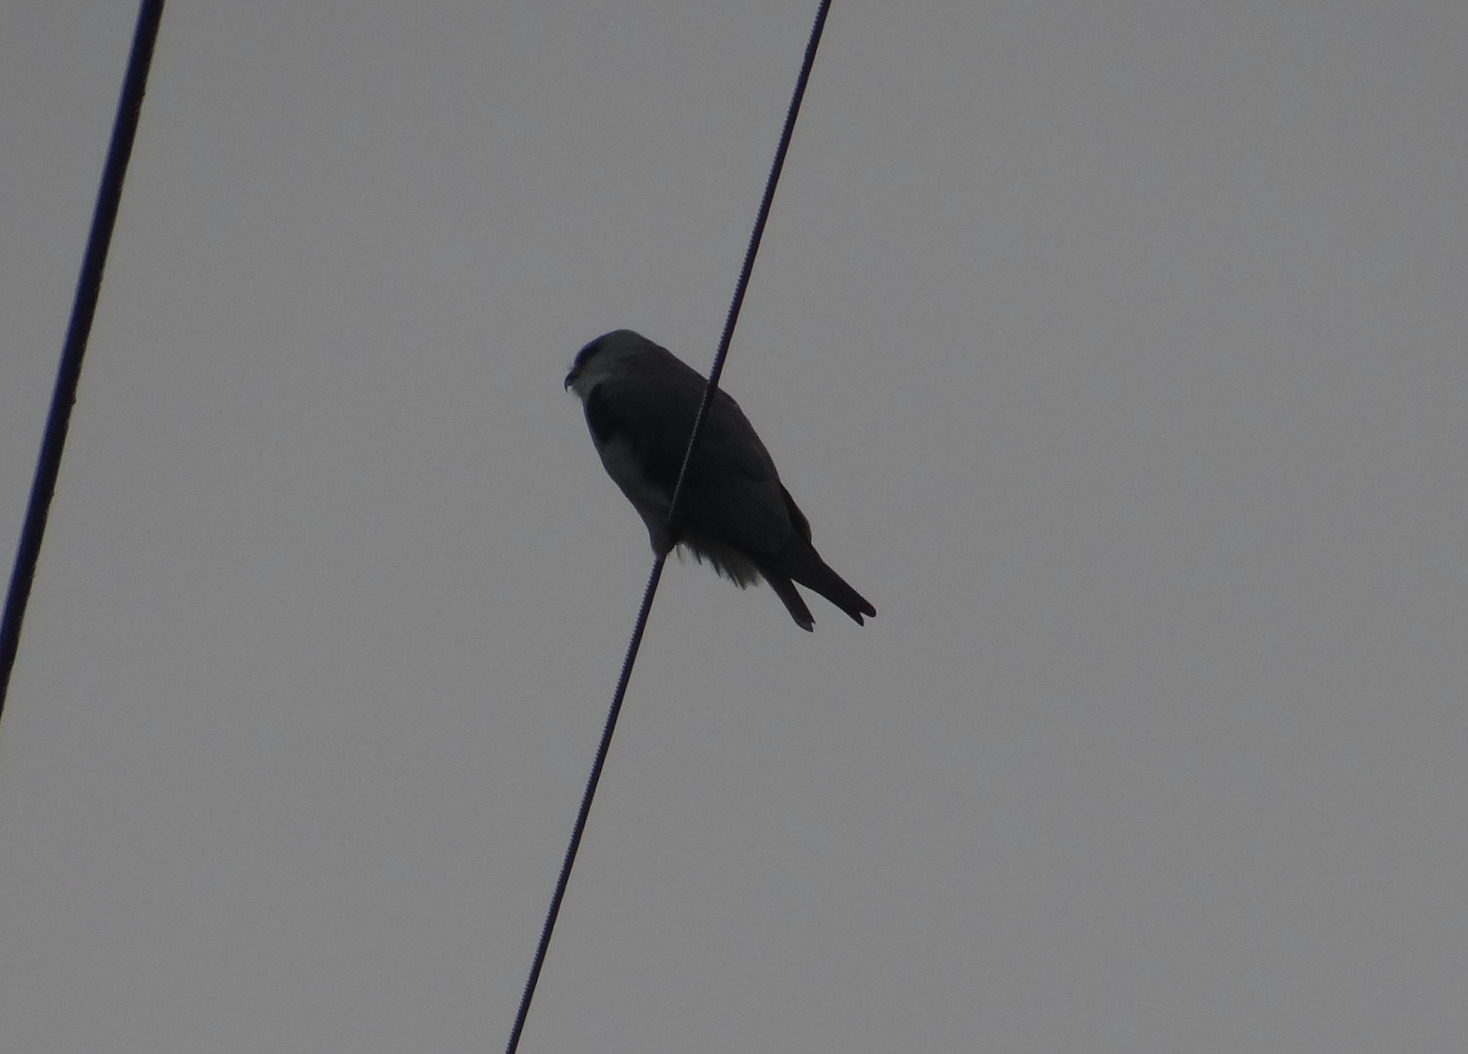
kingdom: Animalia
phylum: Chordata
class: Aves
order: Accipitriformes
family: Accipitridae
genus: Elanus
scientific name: Elanus caeruleus
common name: Black-winged kite
